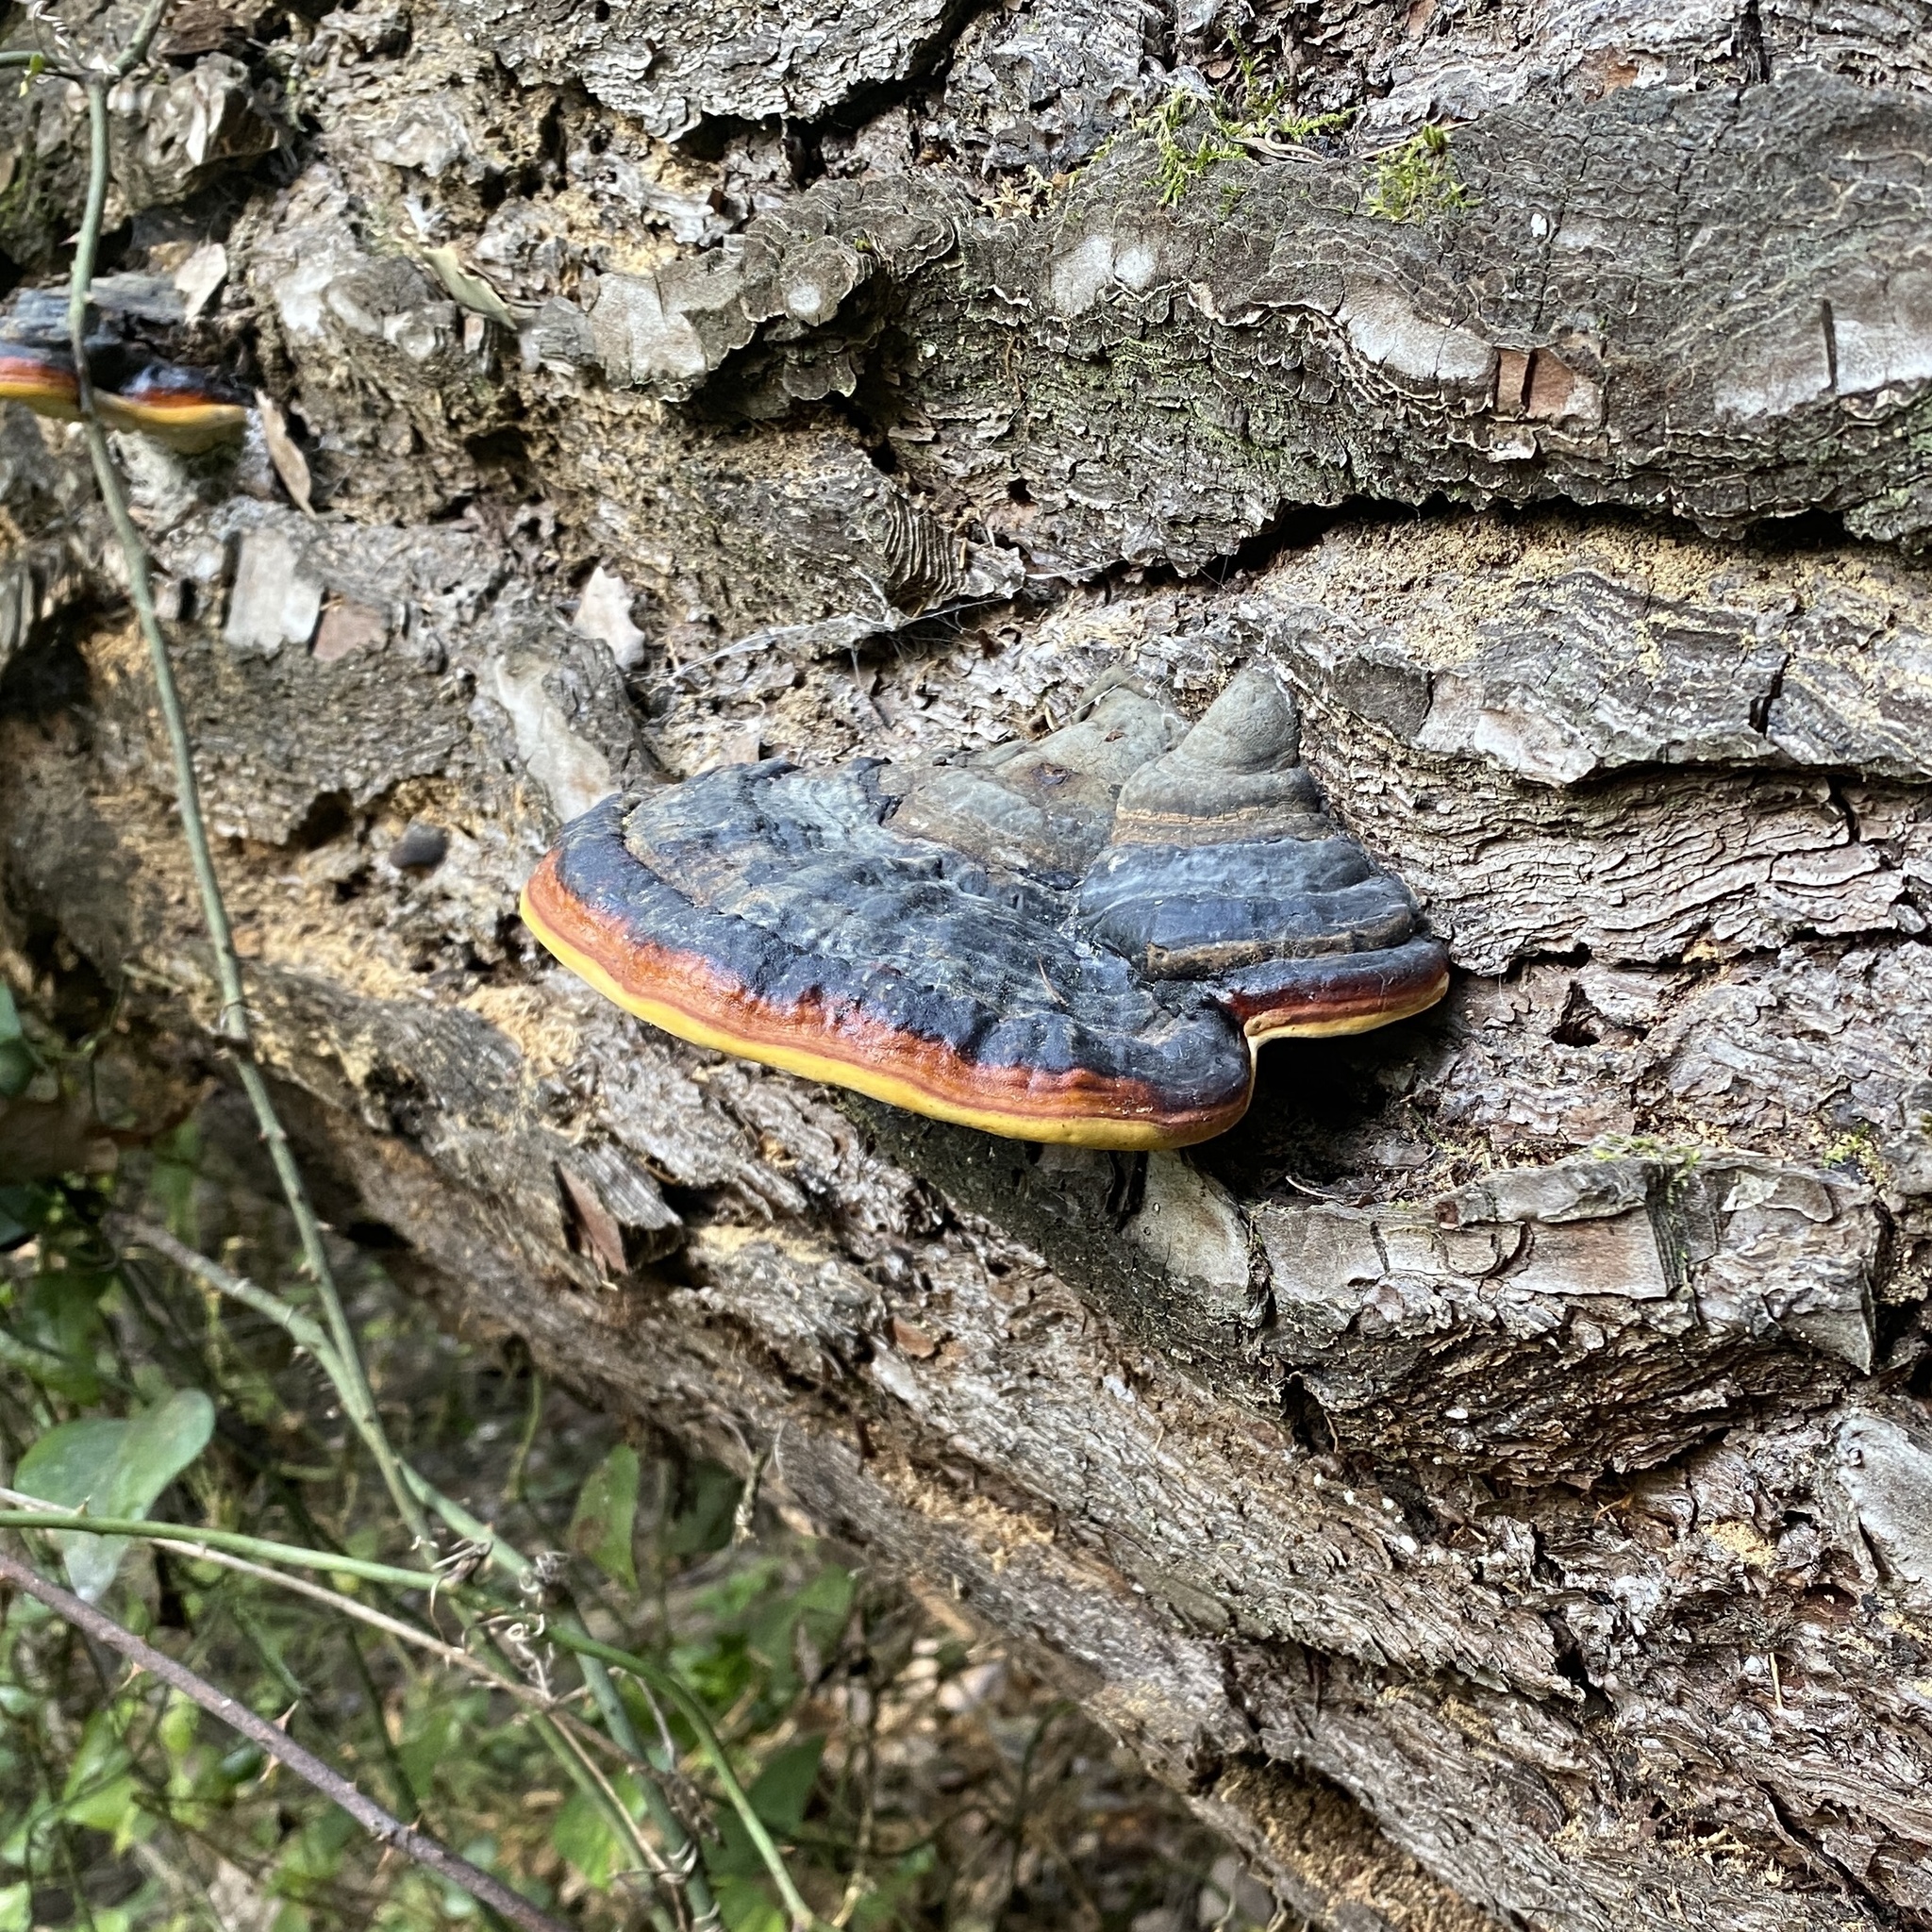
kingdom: Fungi
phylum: Basidiomycota
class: Agaricomycetes
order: Polyporales
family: Fomitopsidaceae
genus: Fomitopsis
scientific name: Fomitopsis pinicola
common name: Red-belted bracket
